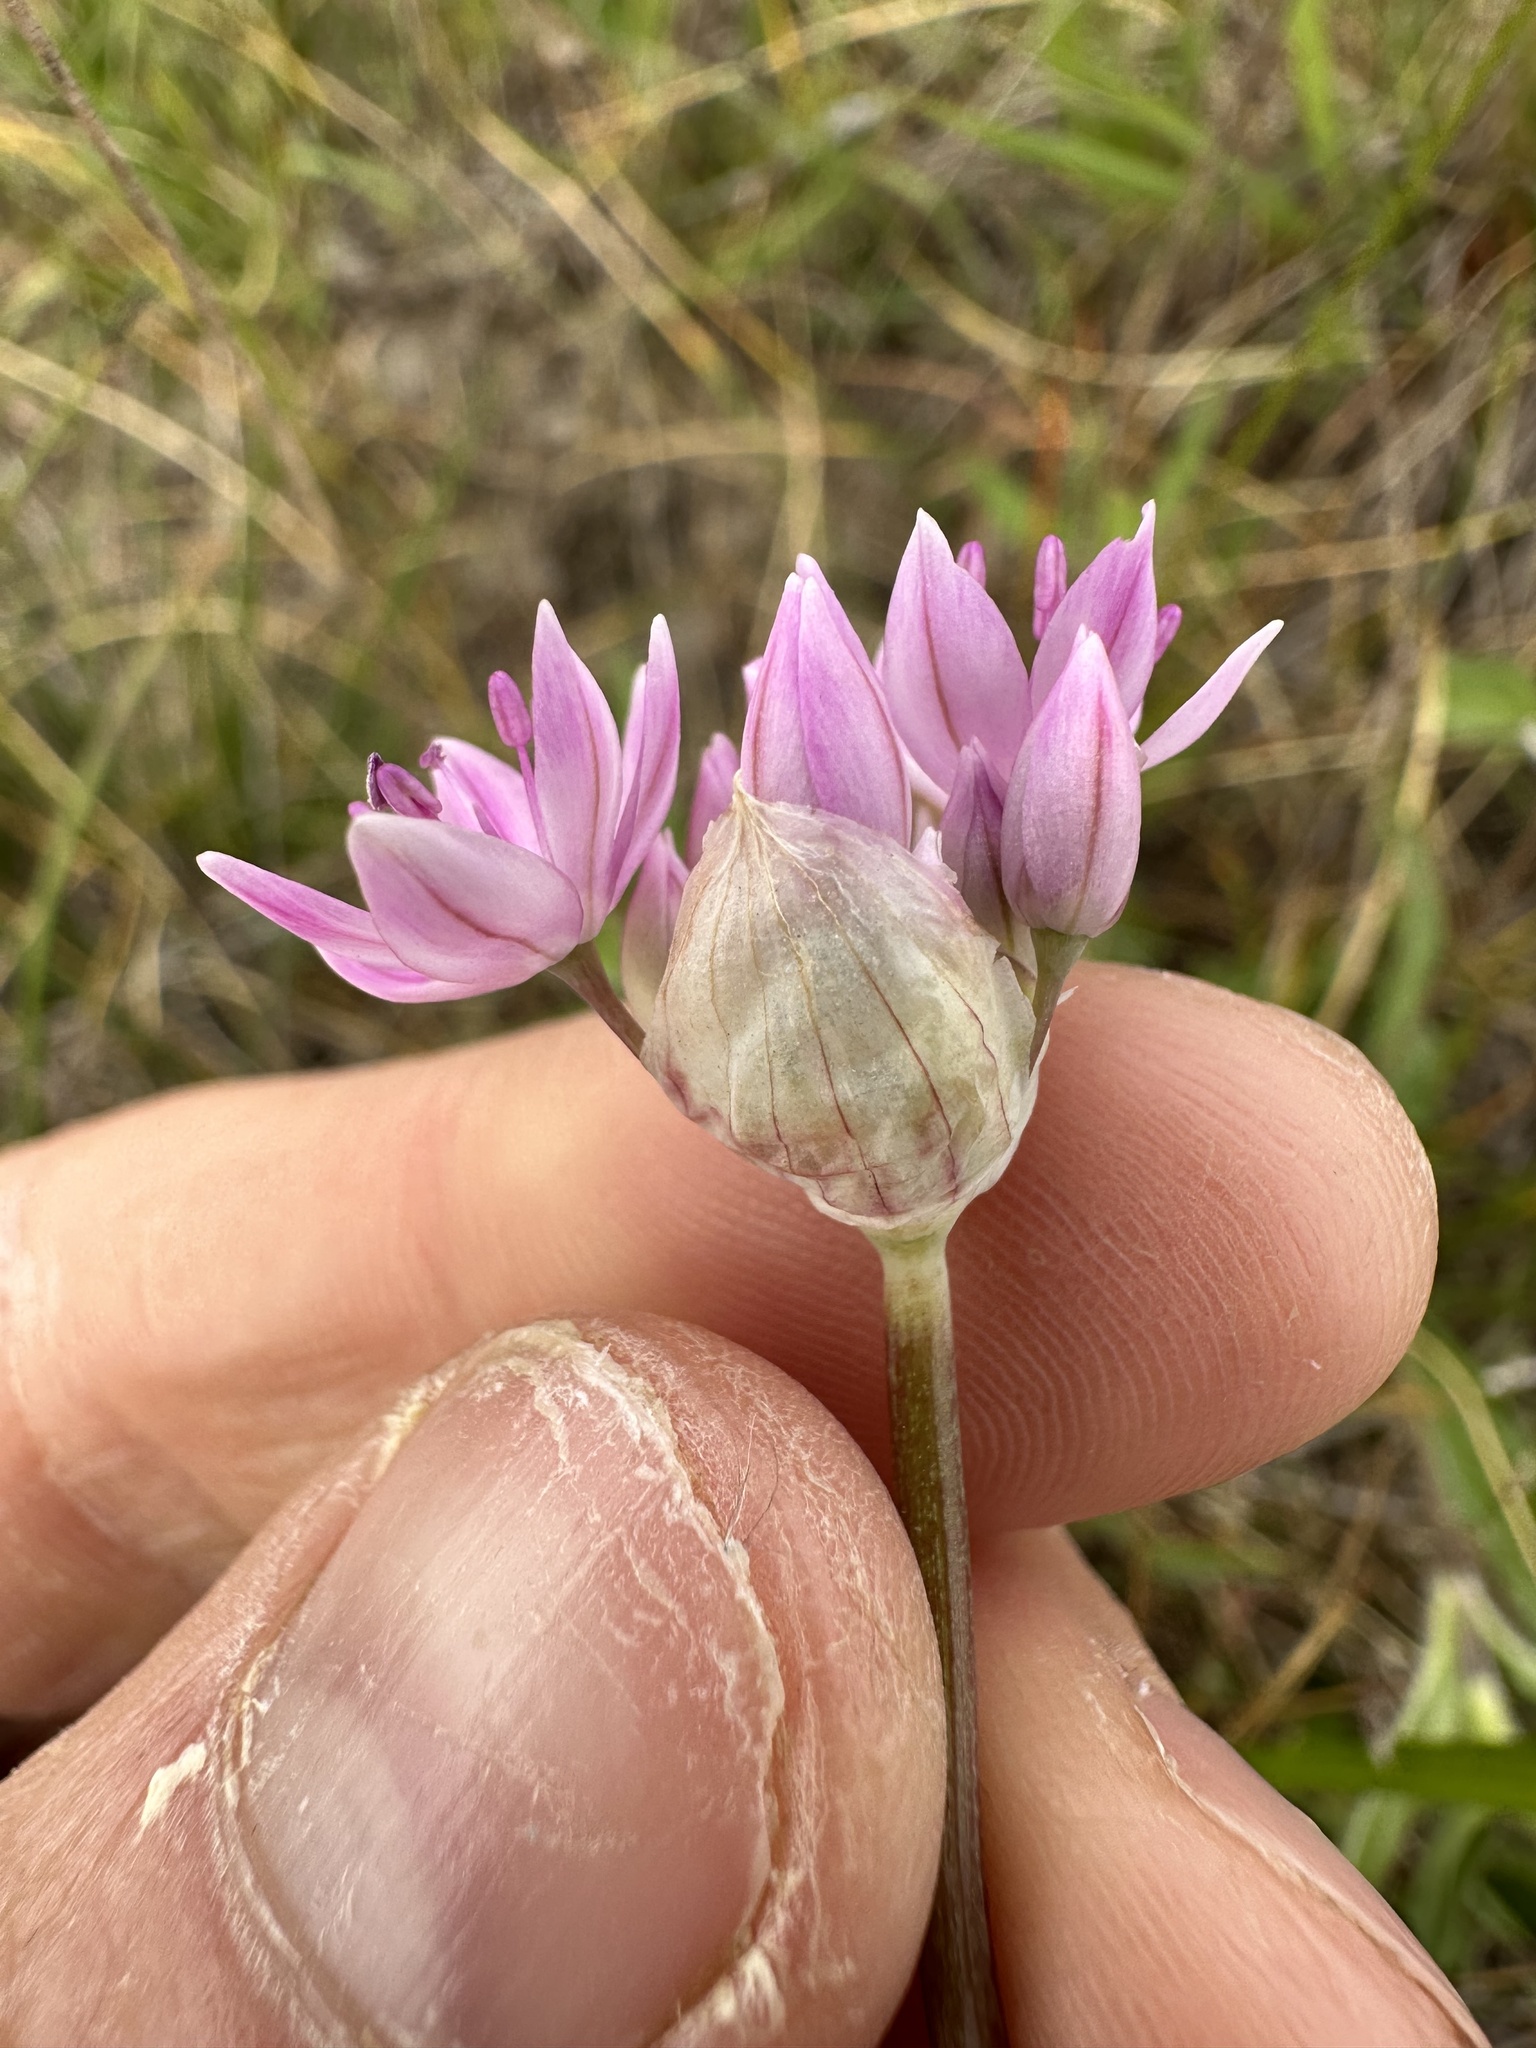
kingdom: Plantae
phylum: Tracheophyta
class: Liliopsida
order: Asparagales
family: Amaryllidaceae
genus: Allium
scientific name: Allium amplectens
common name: Narrow-leaved onion
